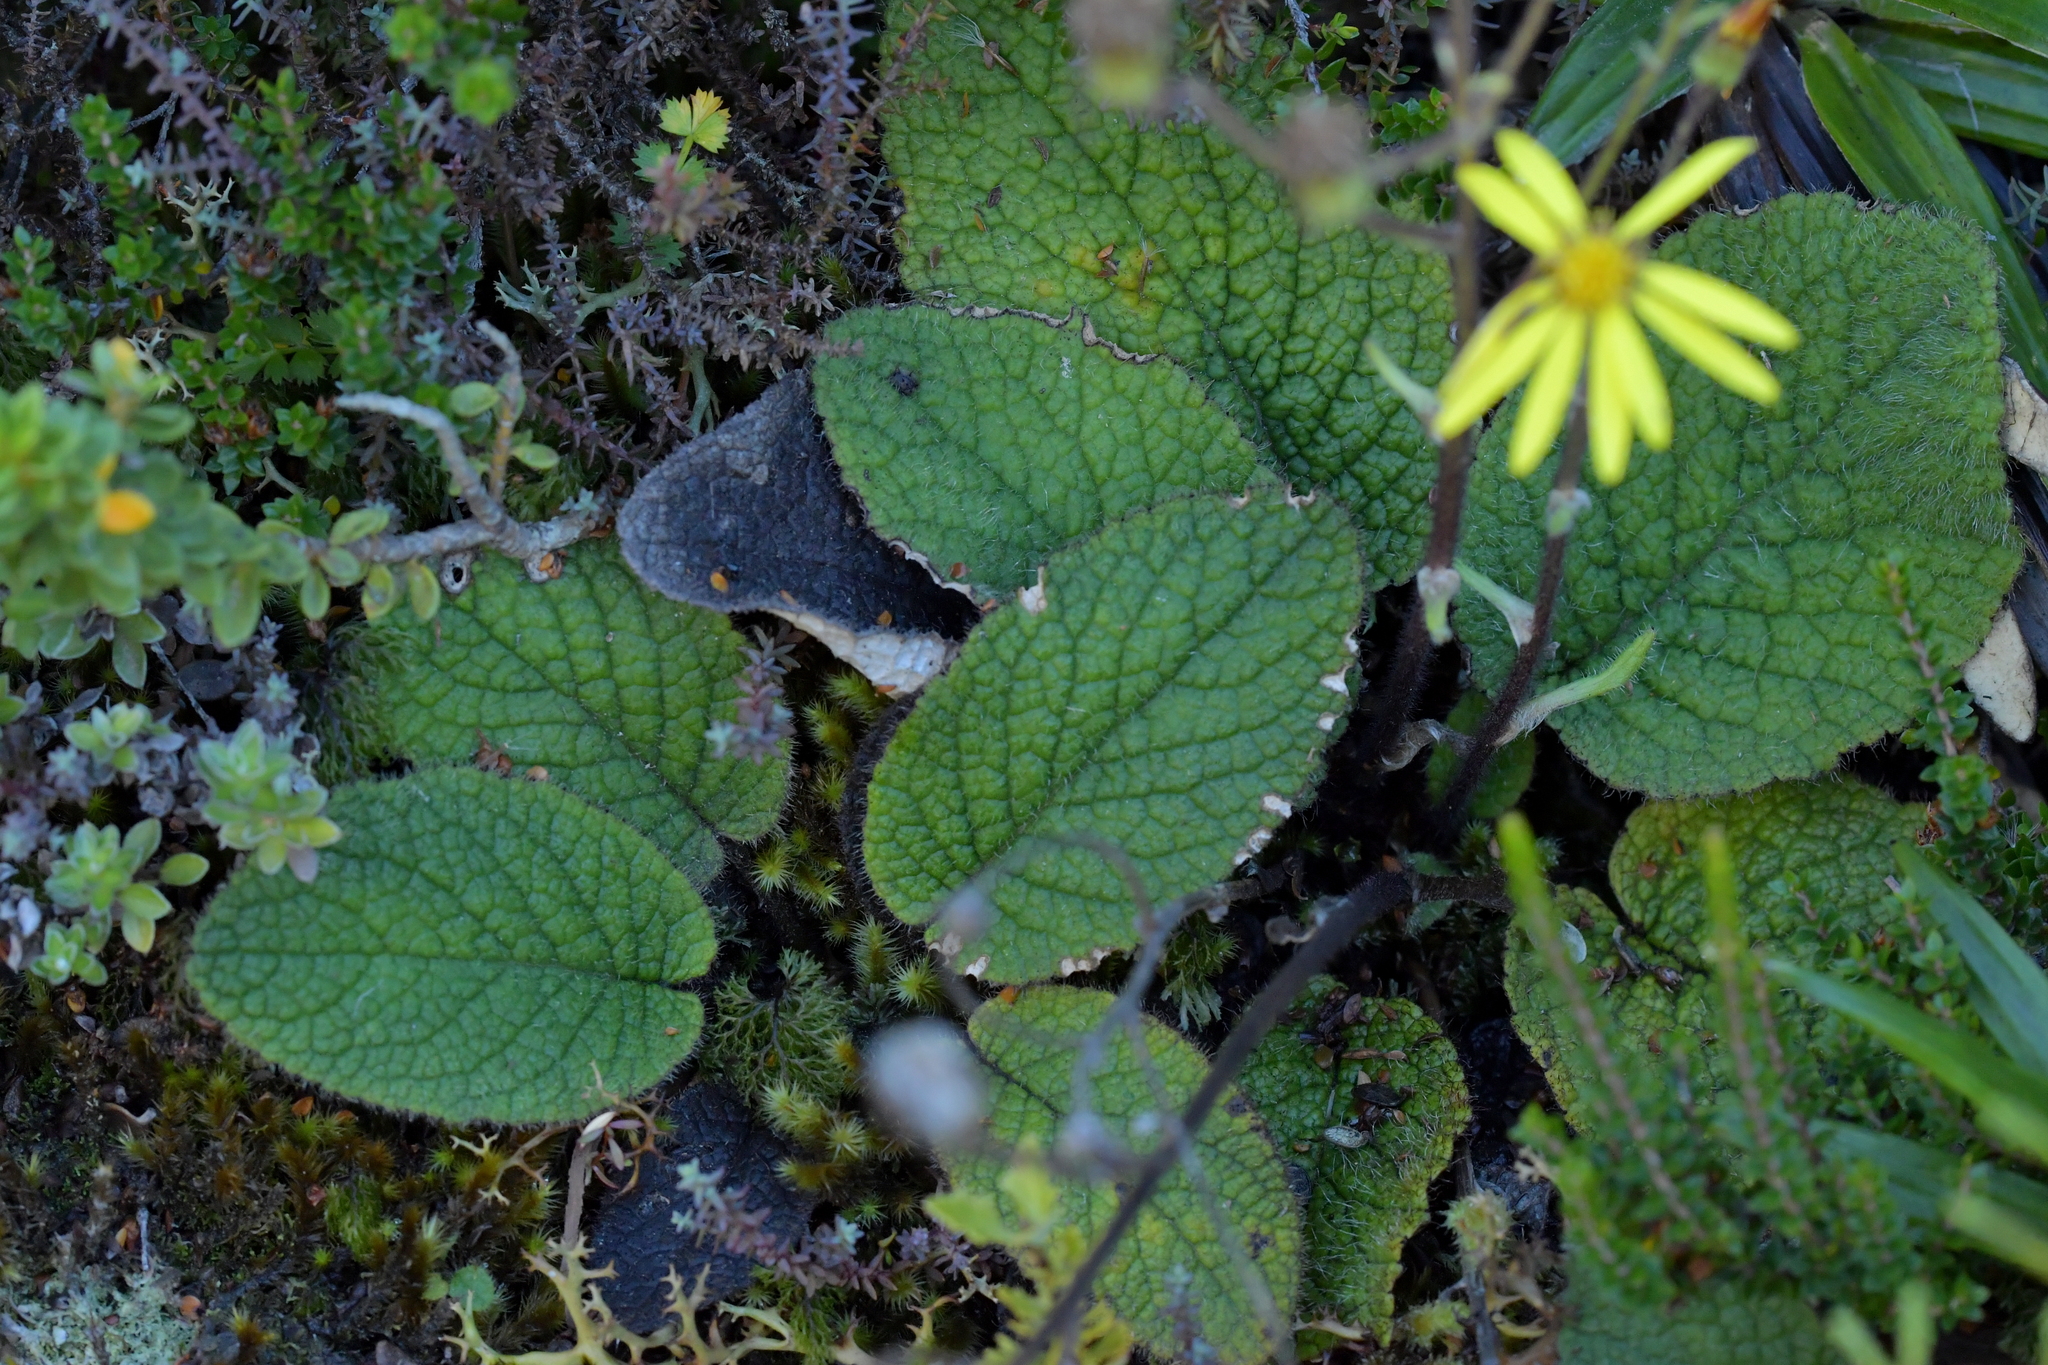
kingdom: Plantae
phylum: Tracheophyta
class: Magnoliopsida
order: Asterales
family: Asteraceae
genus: Brachyglottis
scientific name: Brachyglottis lagopus
